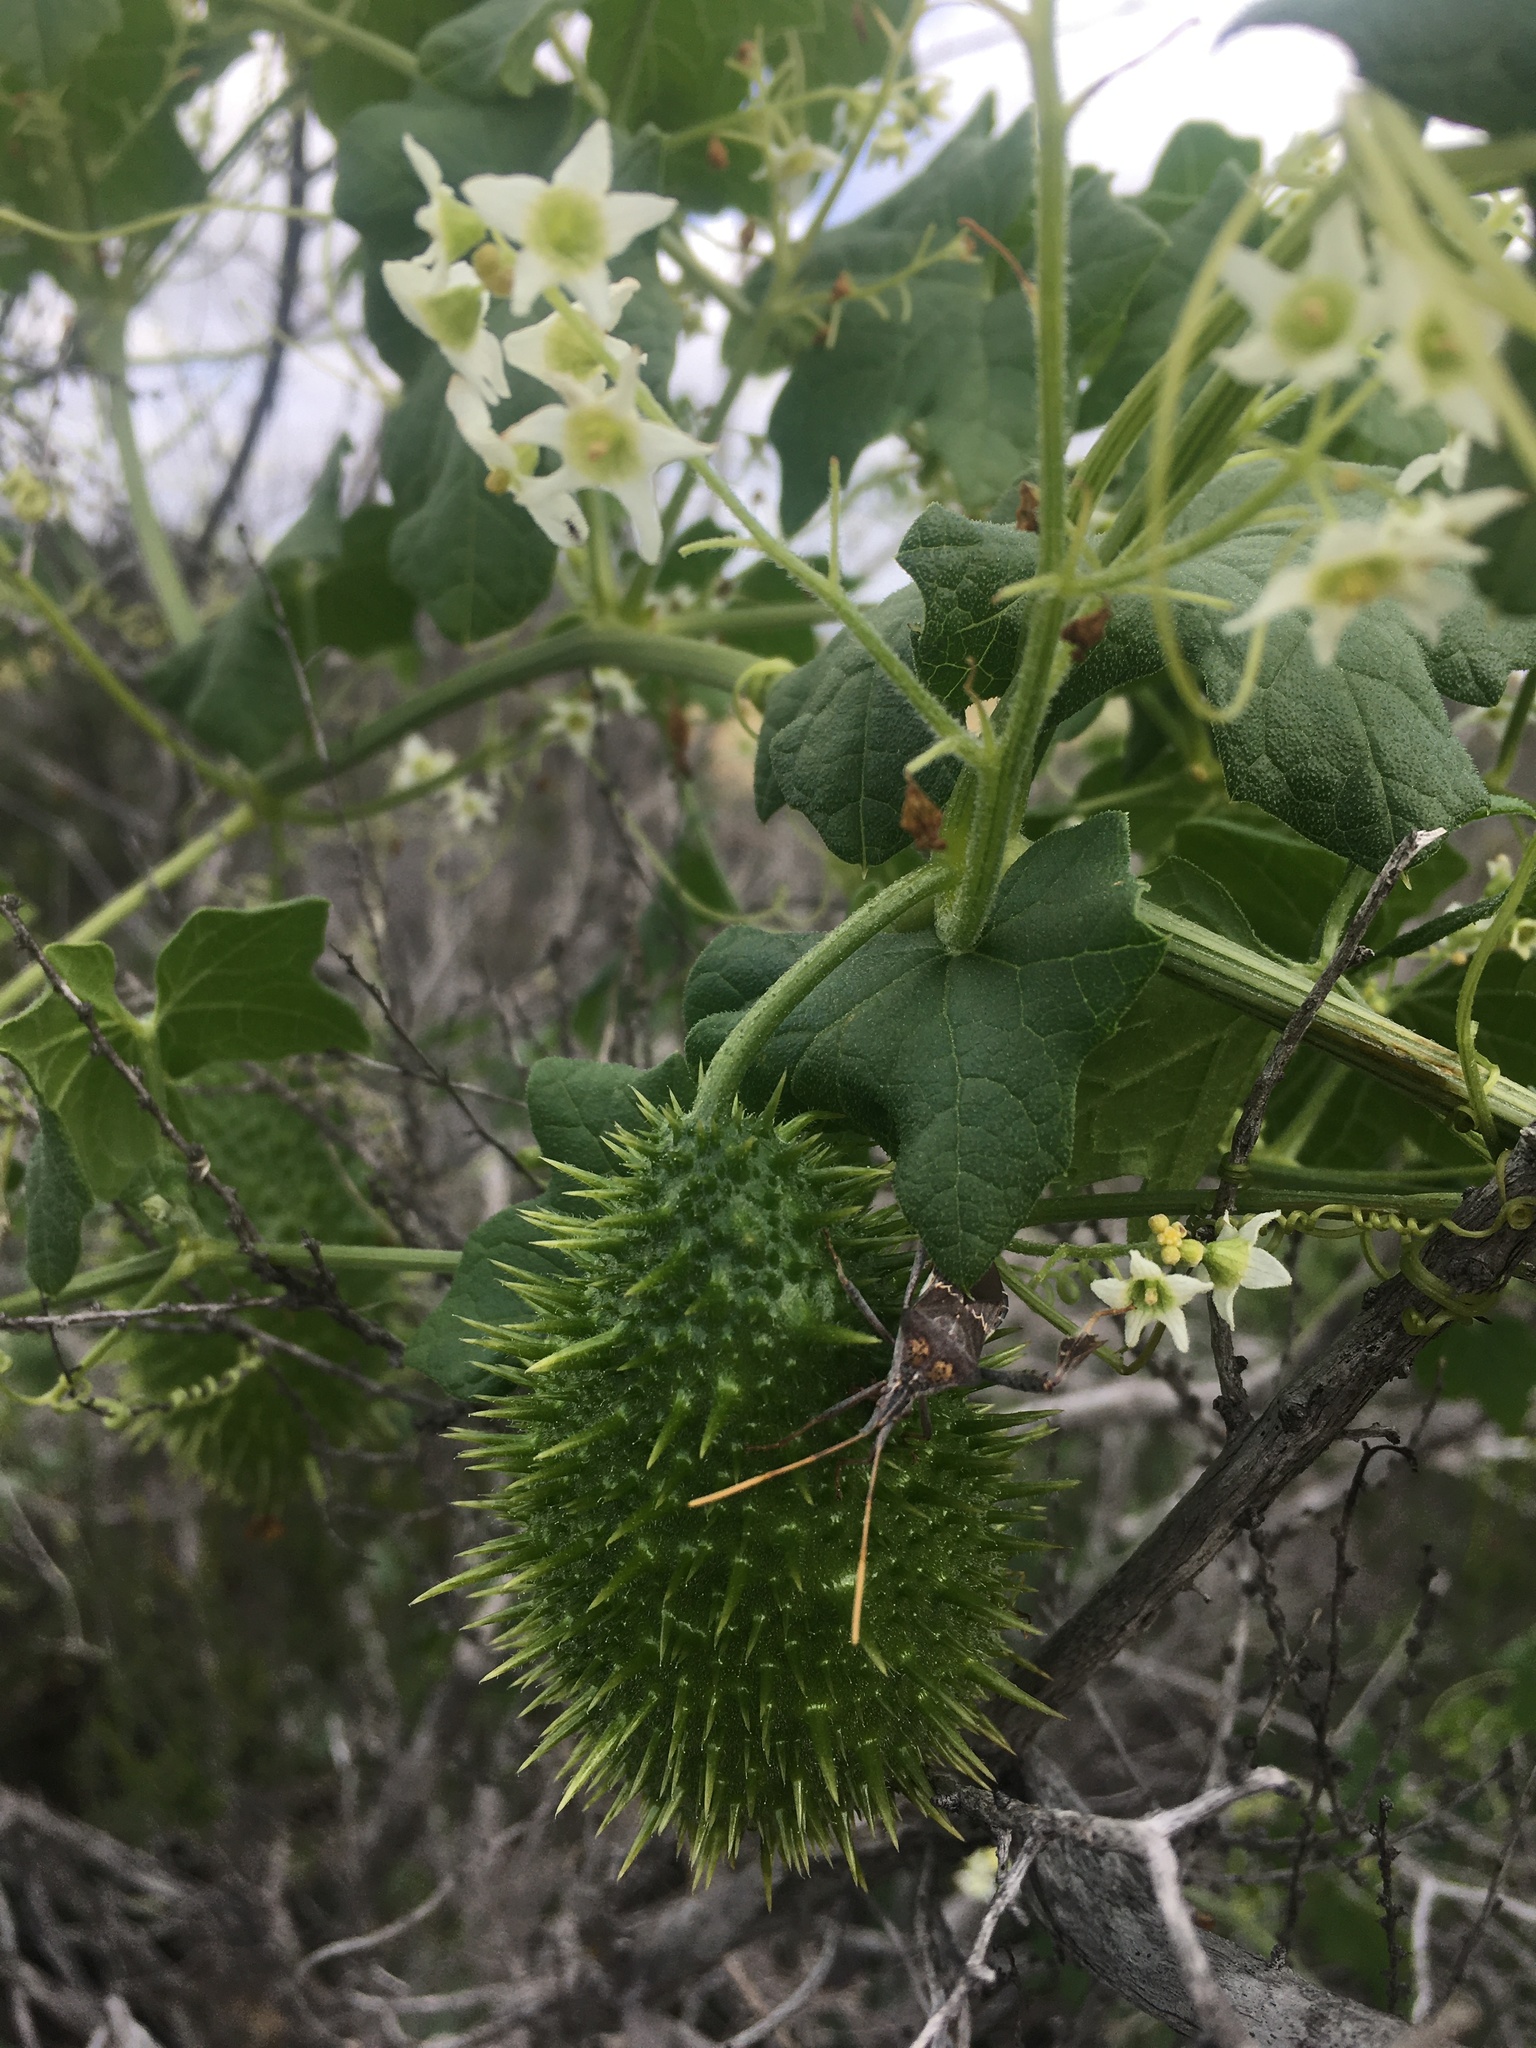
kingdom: Plantae
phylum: Tracheophyta
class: Magnoliopsida
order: Cucurbitales
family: Cucurbitaceae
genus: Marah
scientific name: Marah macrocarpa
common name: Cucamonga manroot
